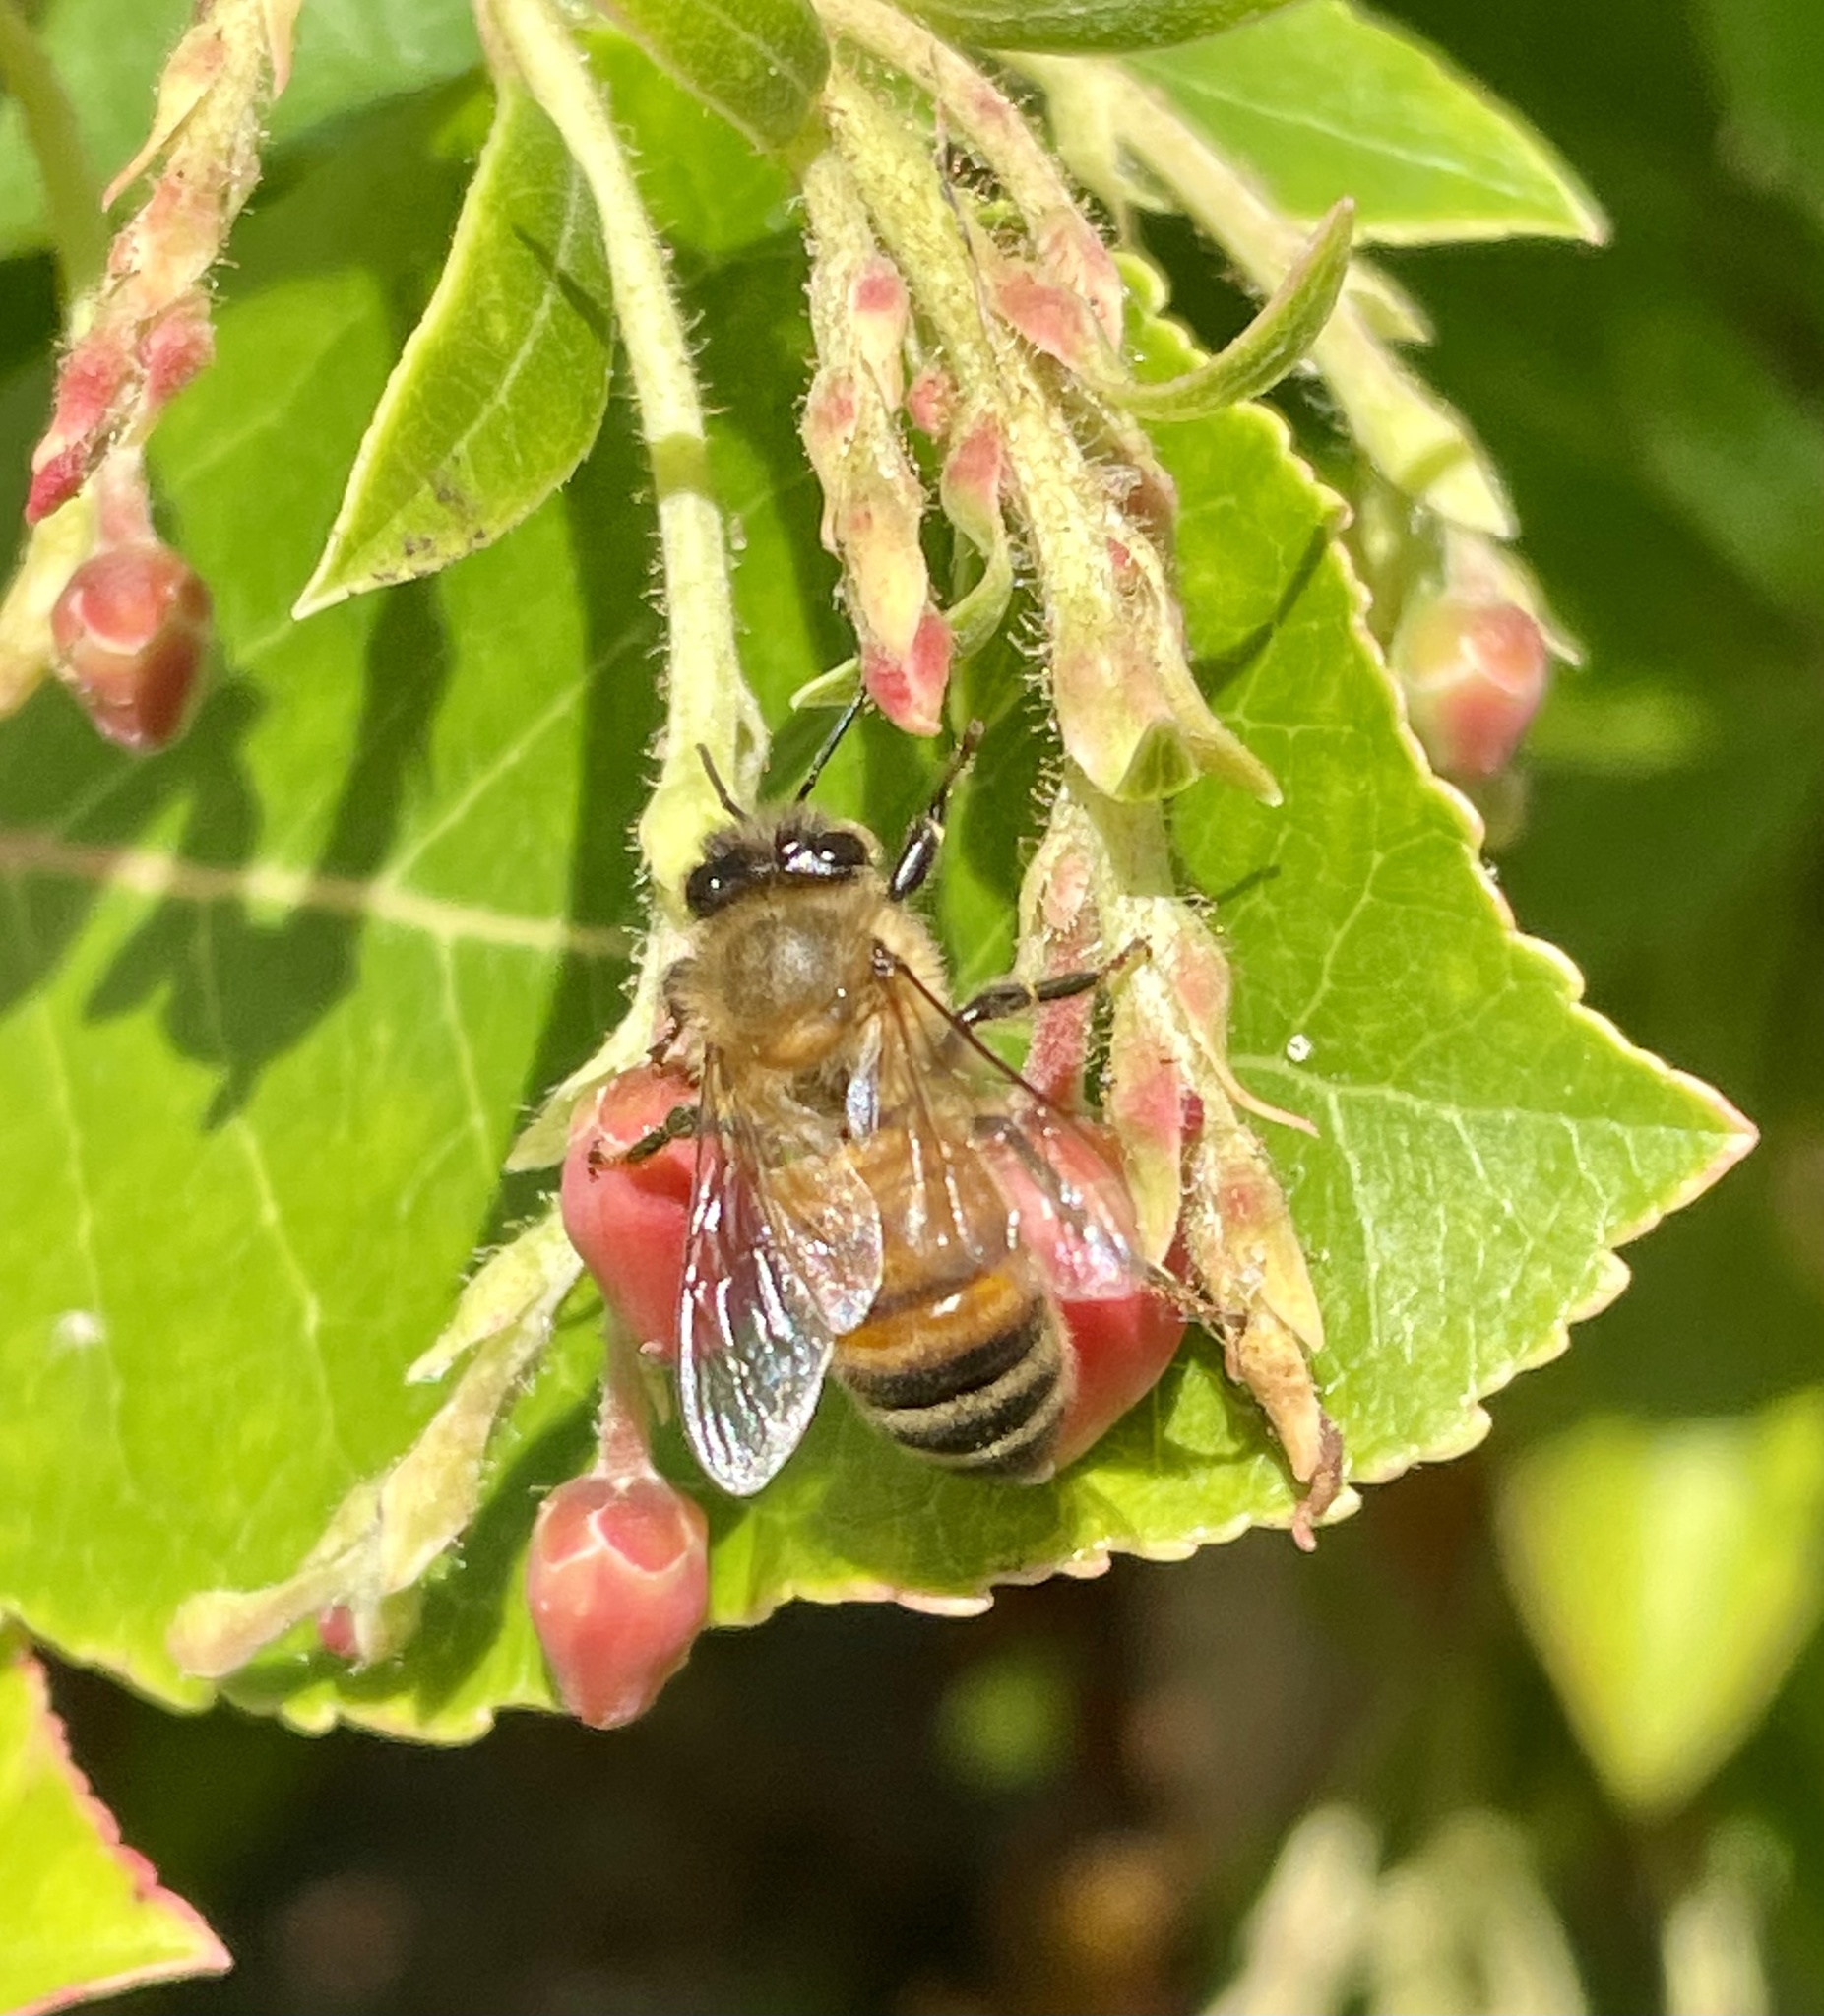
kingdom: Animalia
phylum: Arthropoda
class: Insecta
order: Hymenoptera
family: Apidae
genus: Apis
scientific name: Apis mellifera
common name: Honey bee
